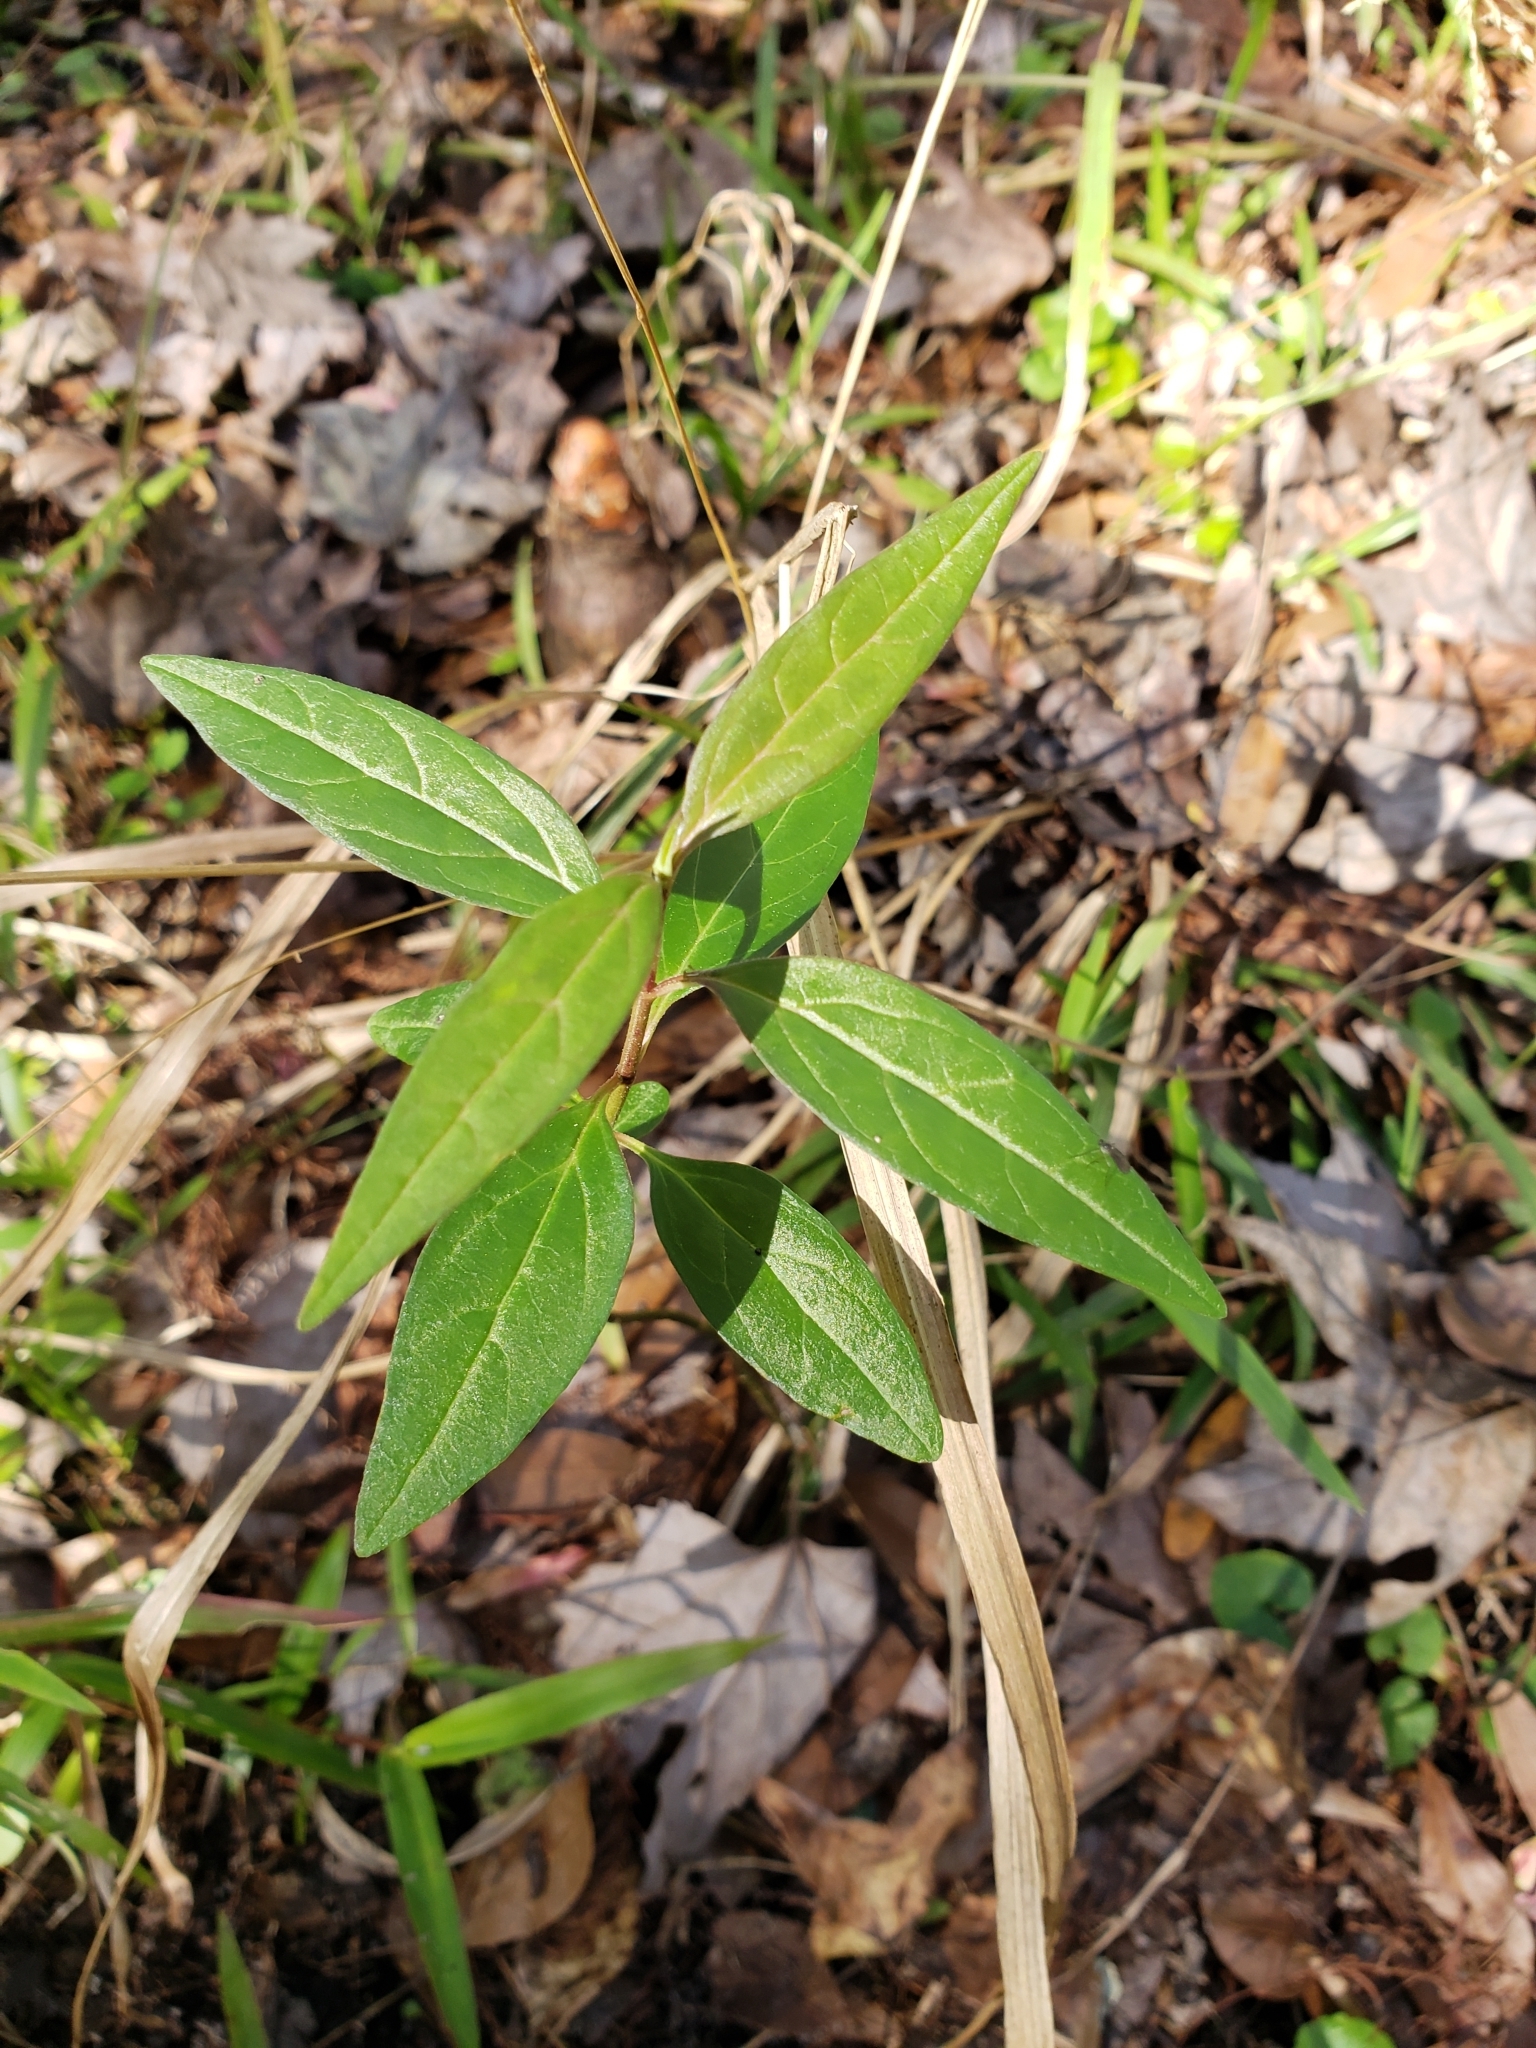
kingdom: Plantae
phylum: Tracheophyta
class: Magnoliopsida
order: Gentianales
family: Apocynaceae
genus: Asclepias
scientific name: Asclepias perennis
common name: Smooth-seed milkweed
